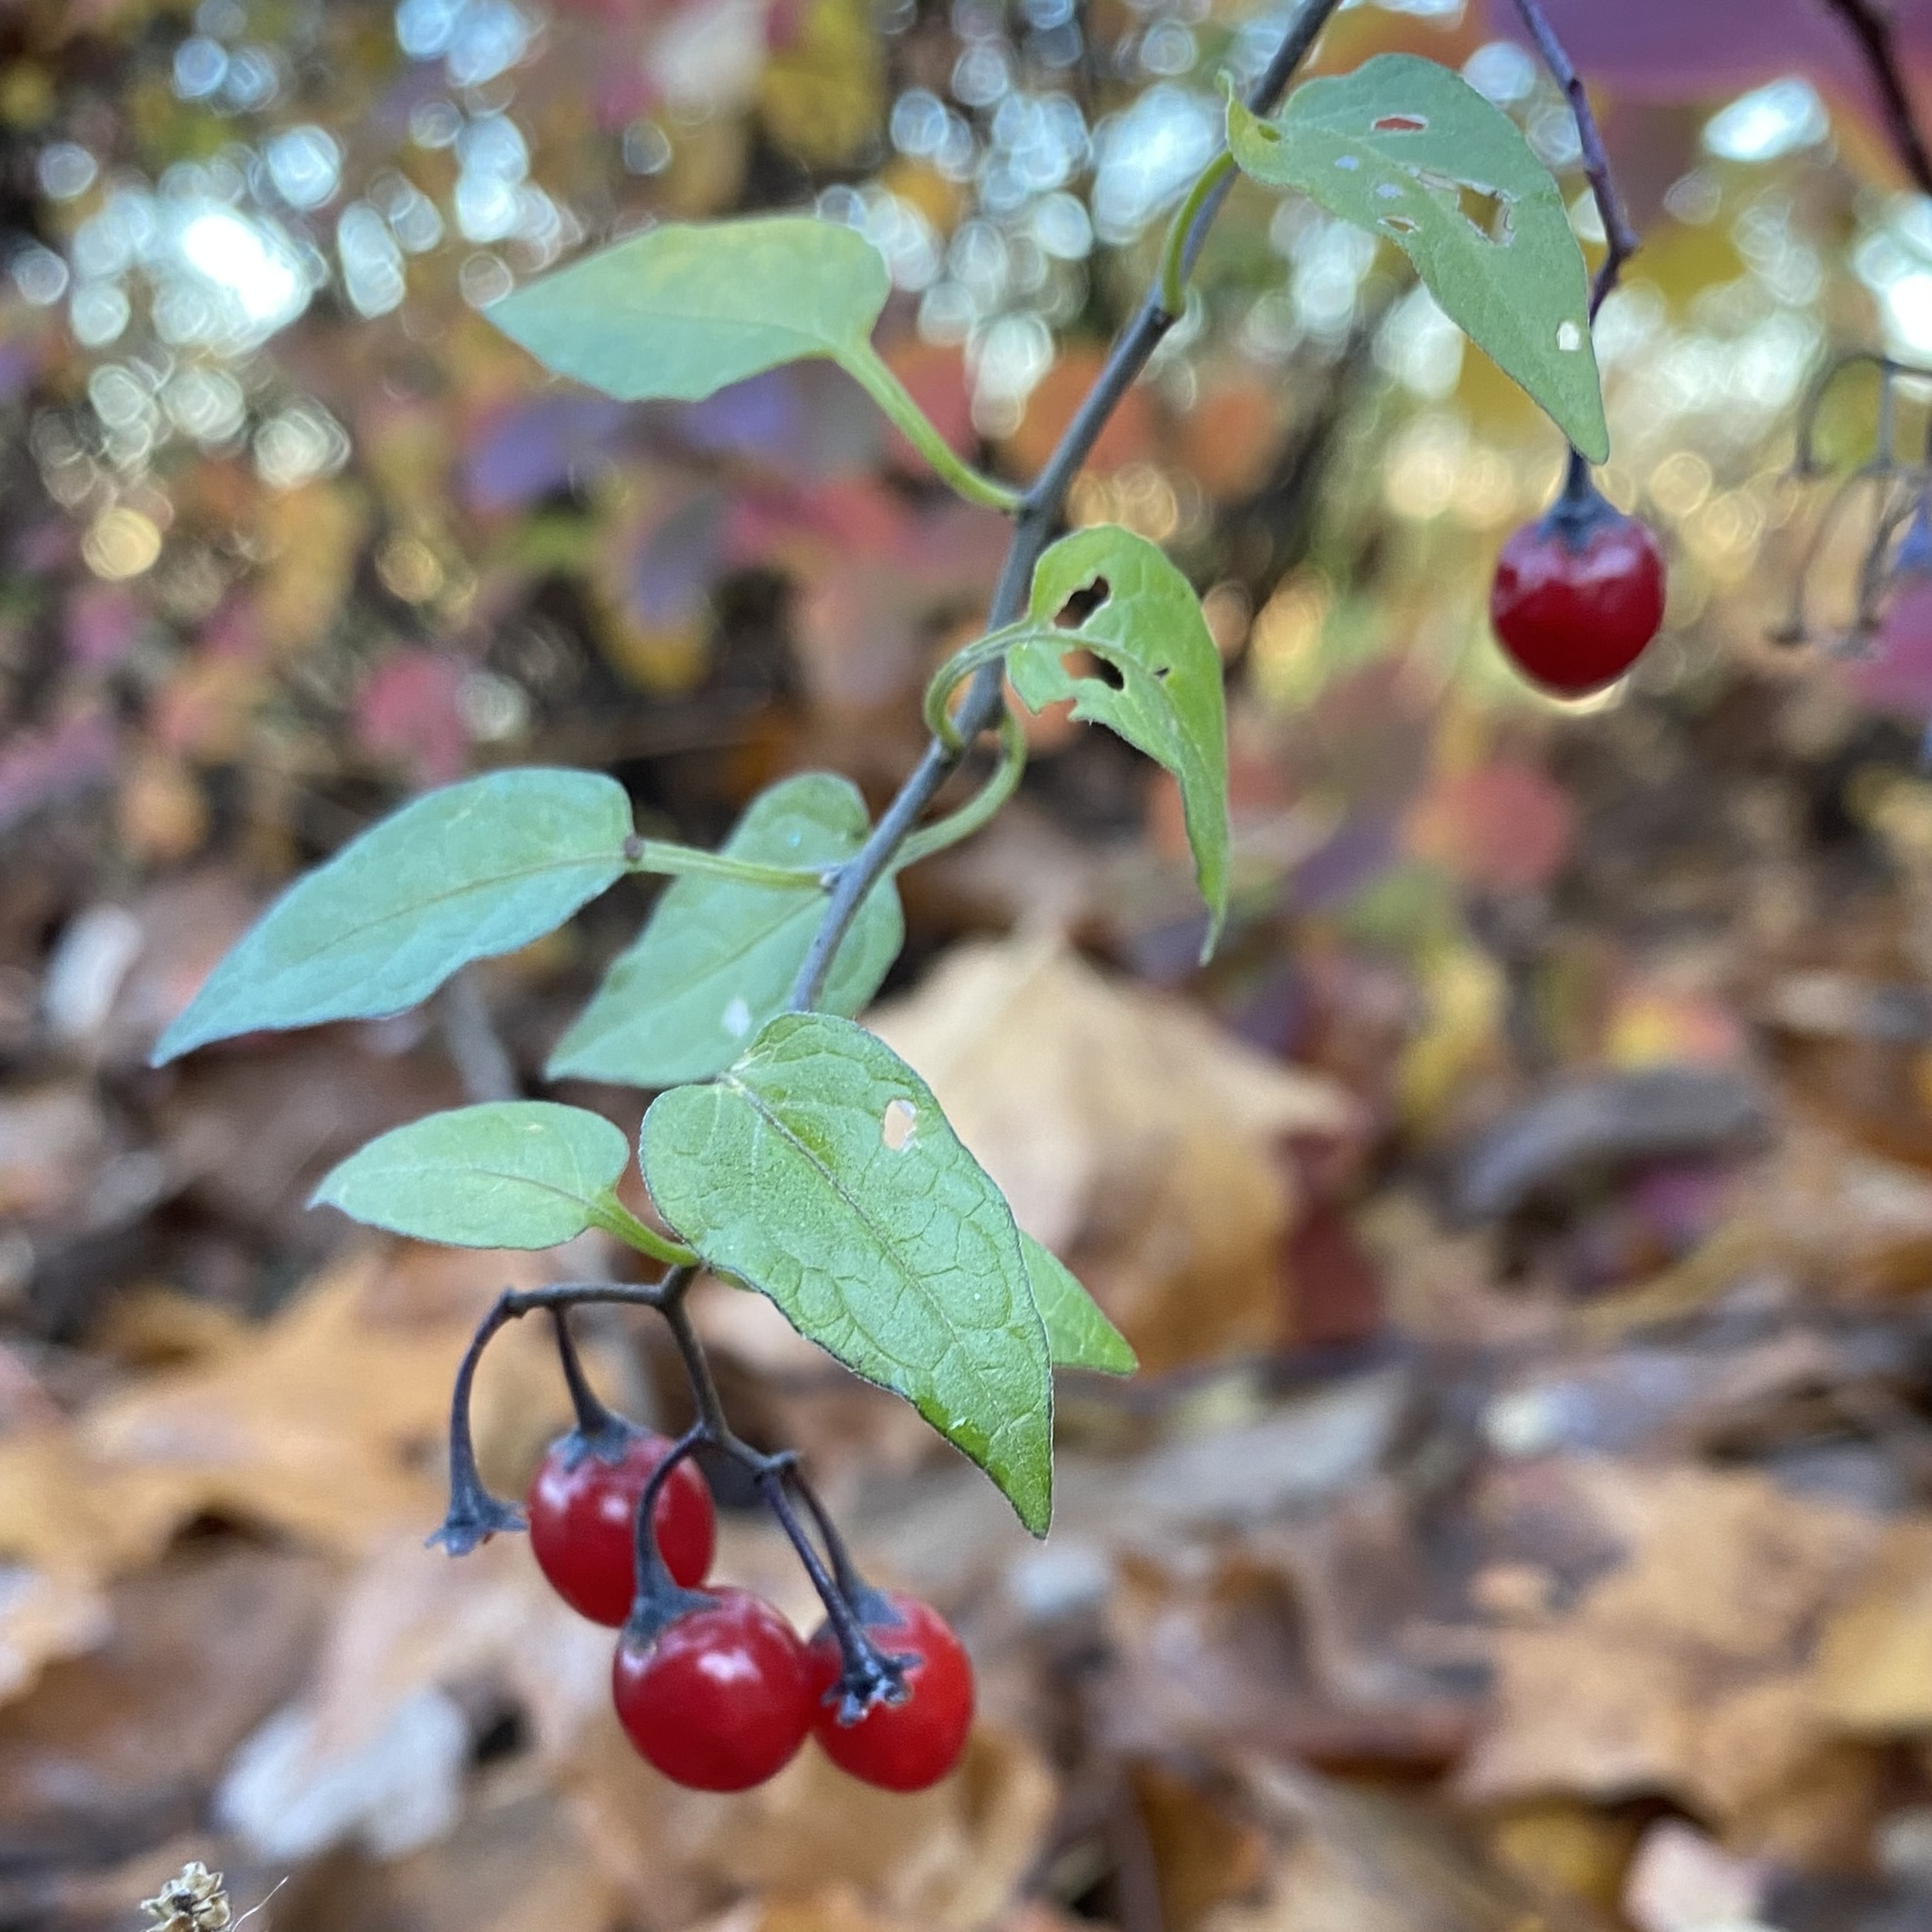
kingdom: Plantae
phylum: Tracheophyta
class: Magnoliopsida
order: Solanales
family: Solanaceae
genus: Solanum
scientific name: Solanum dulcamara
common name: Climbing nightshade
